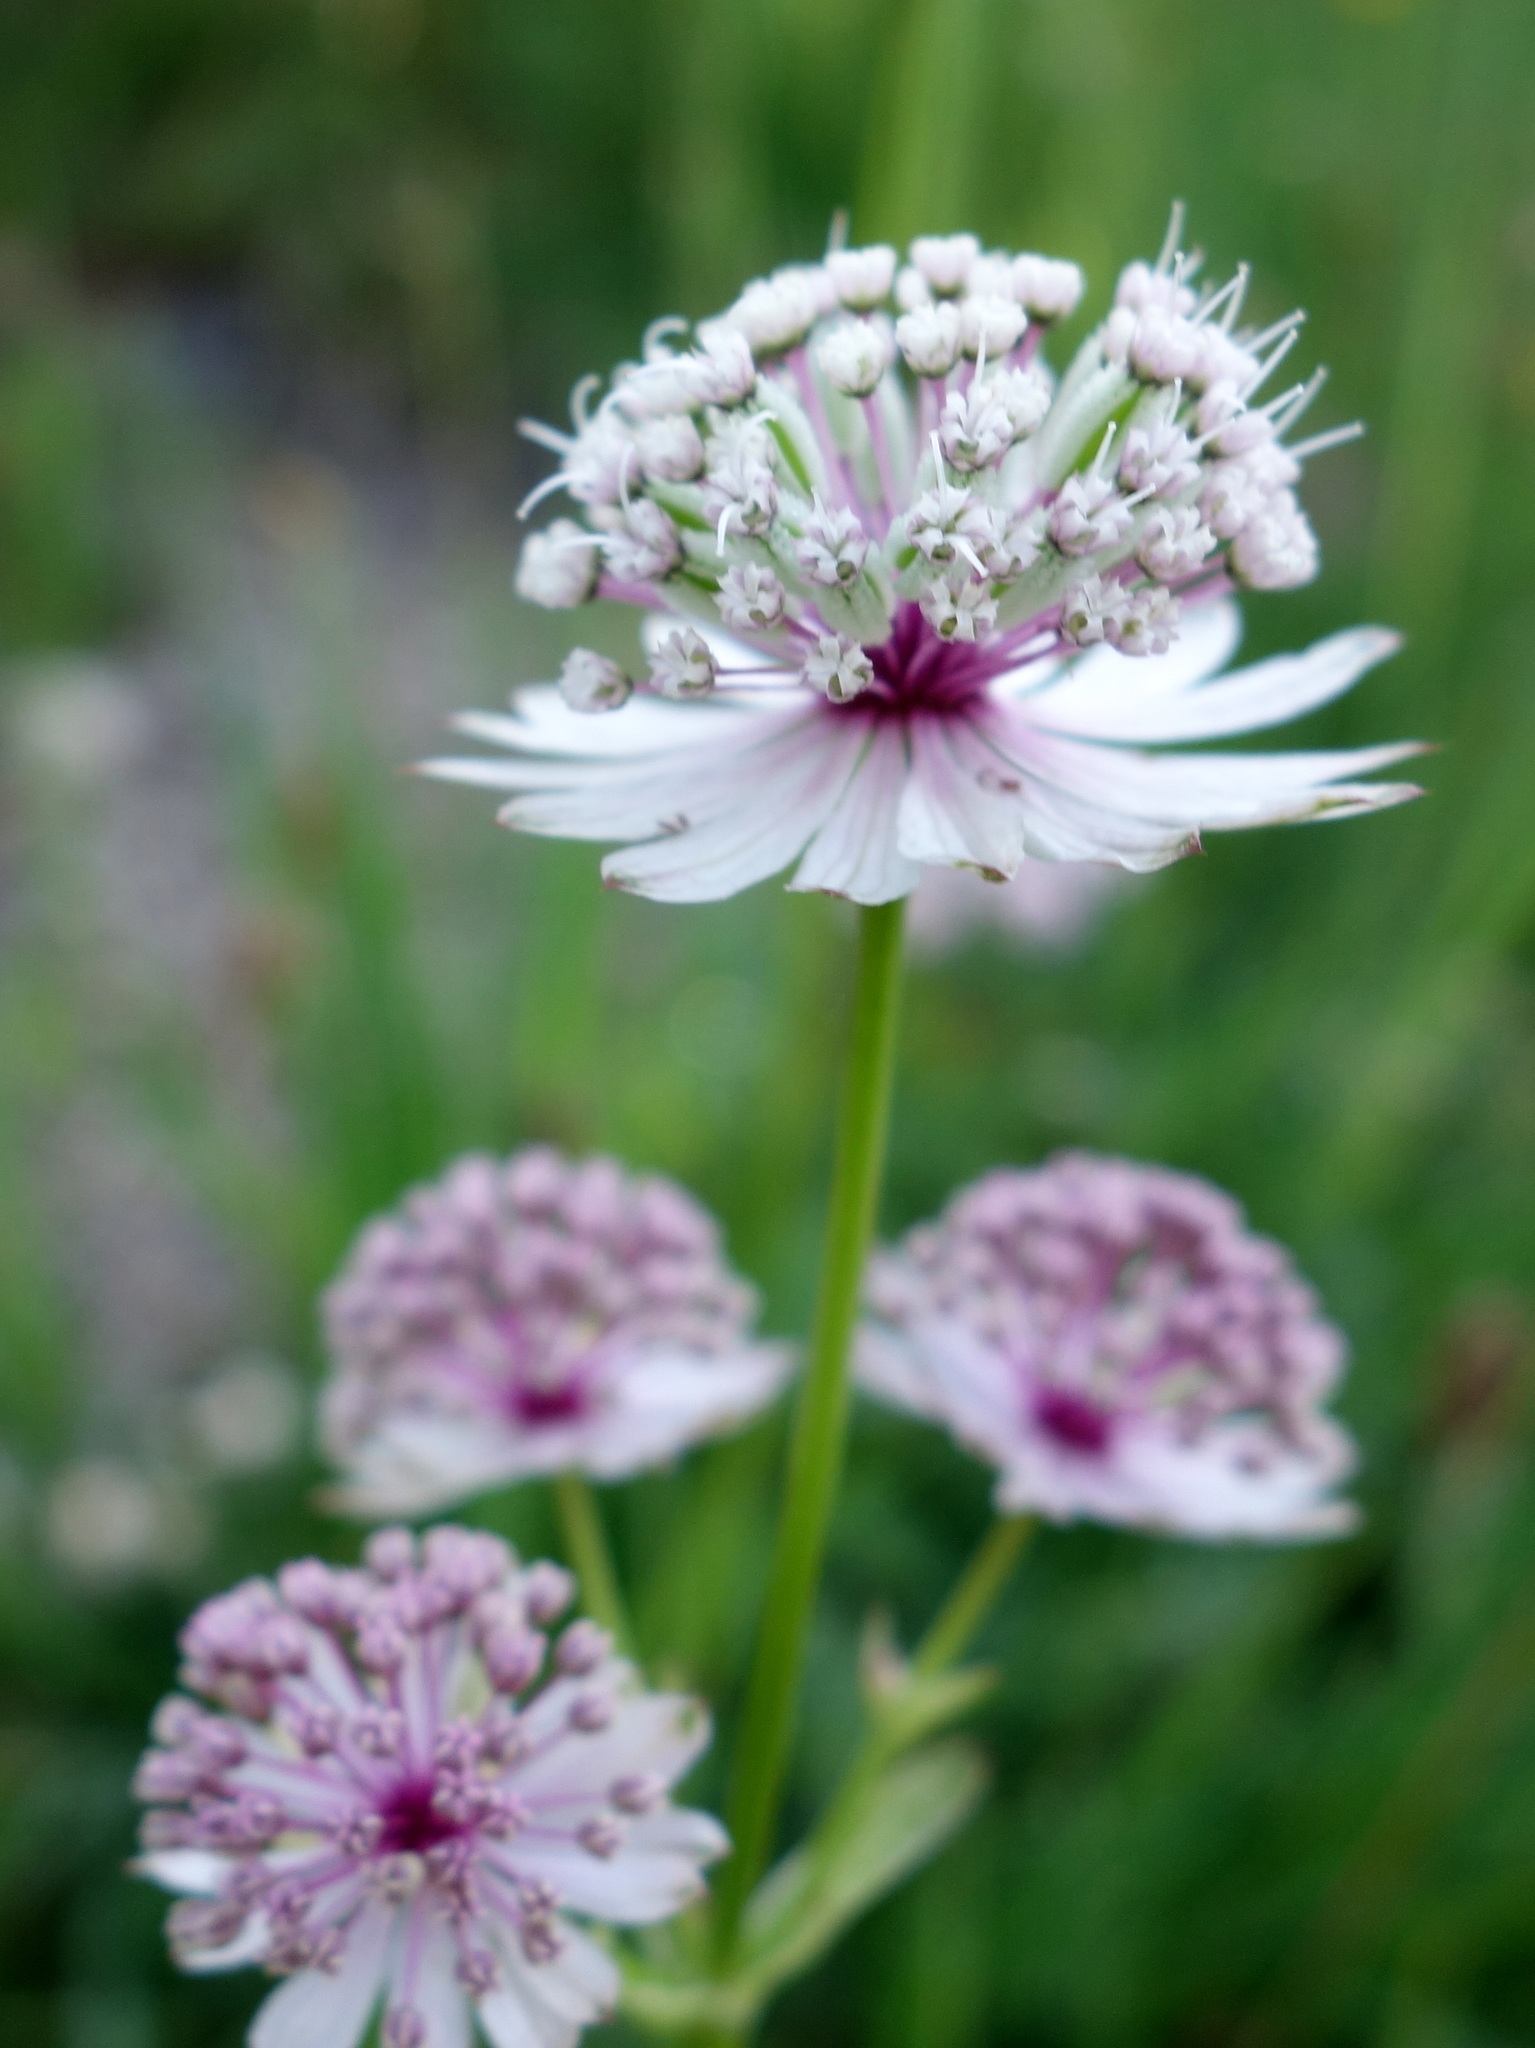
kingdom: Plantae
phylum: Tracheophyta
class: Magnoliopsida
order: Apiales
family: Apiaceae
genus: Astrantia
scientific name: Astrantia major
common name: Greater masterwort
